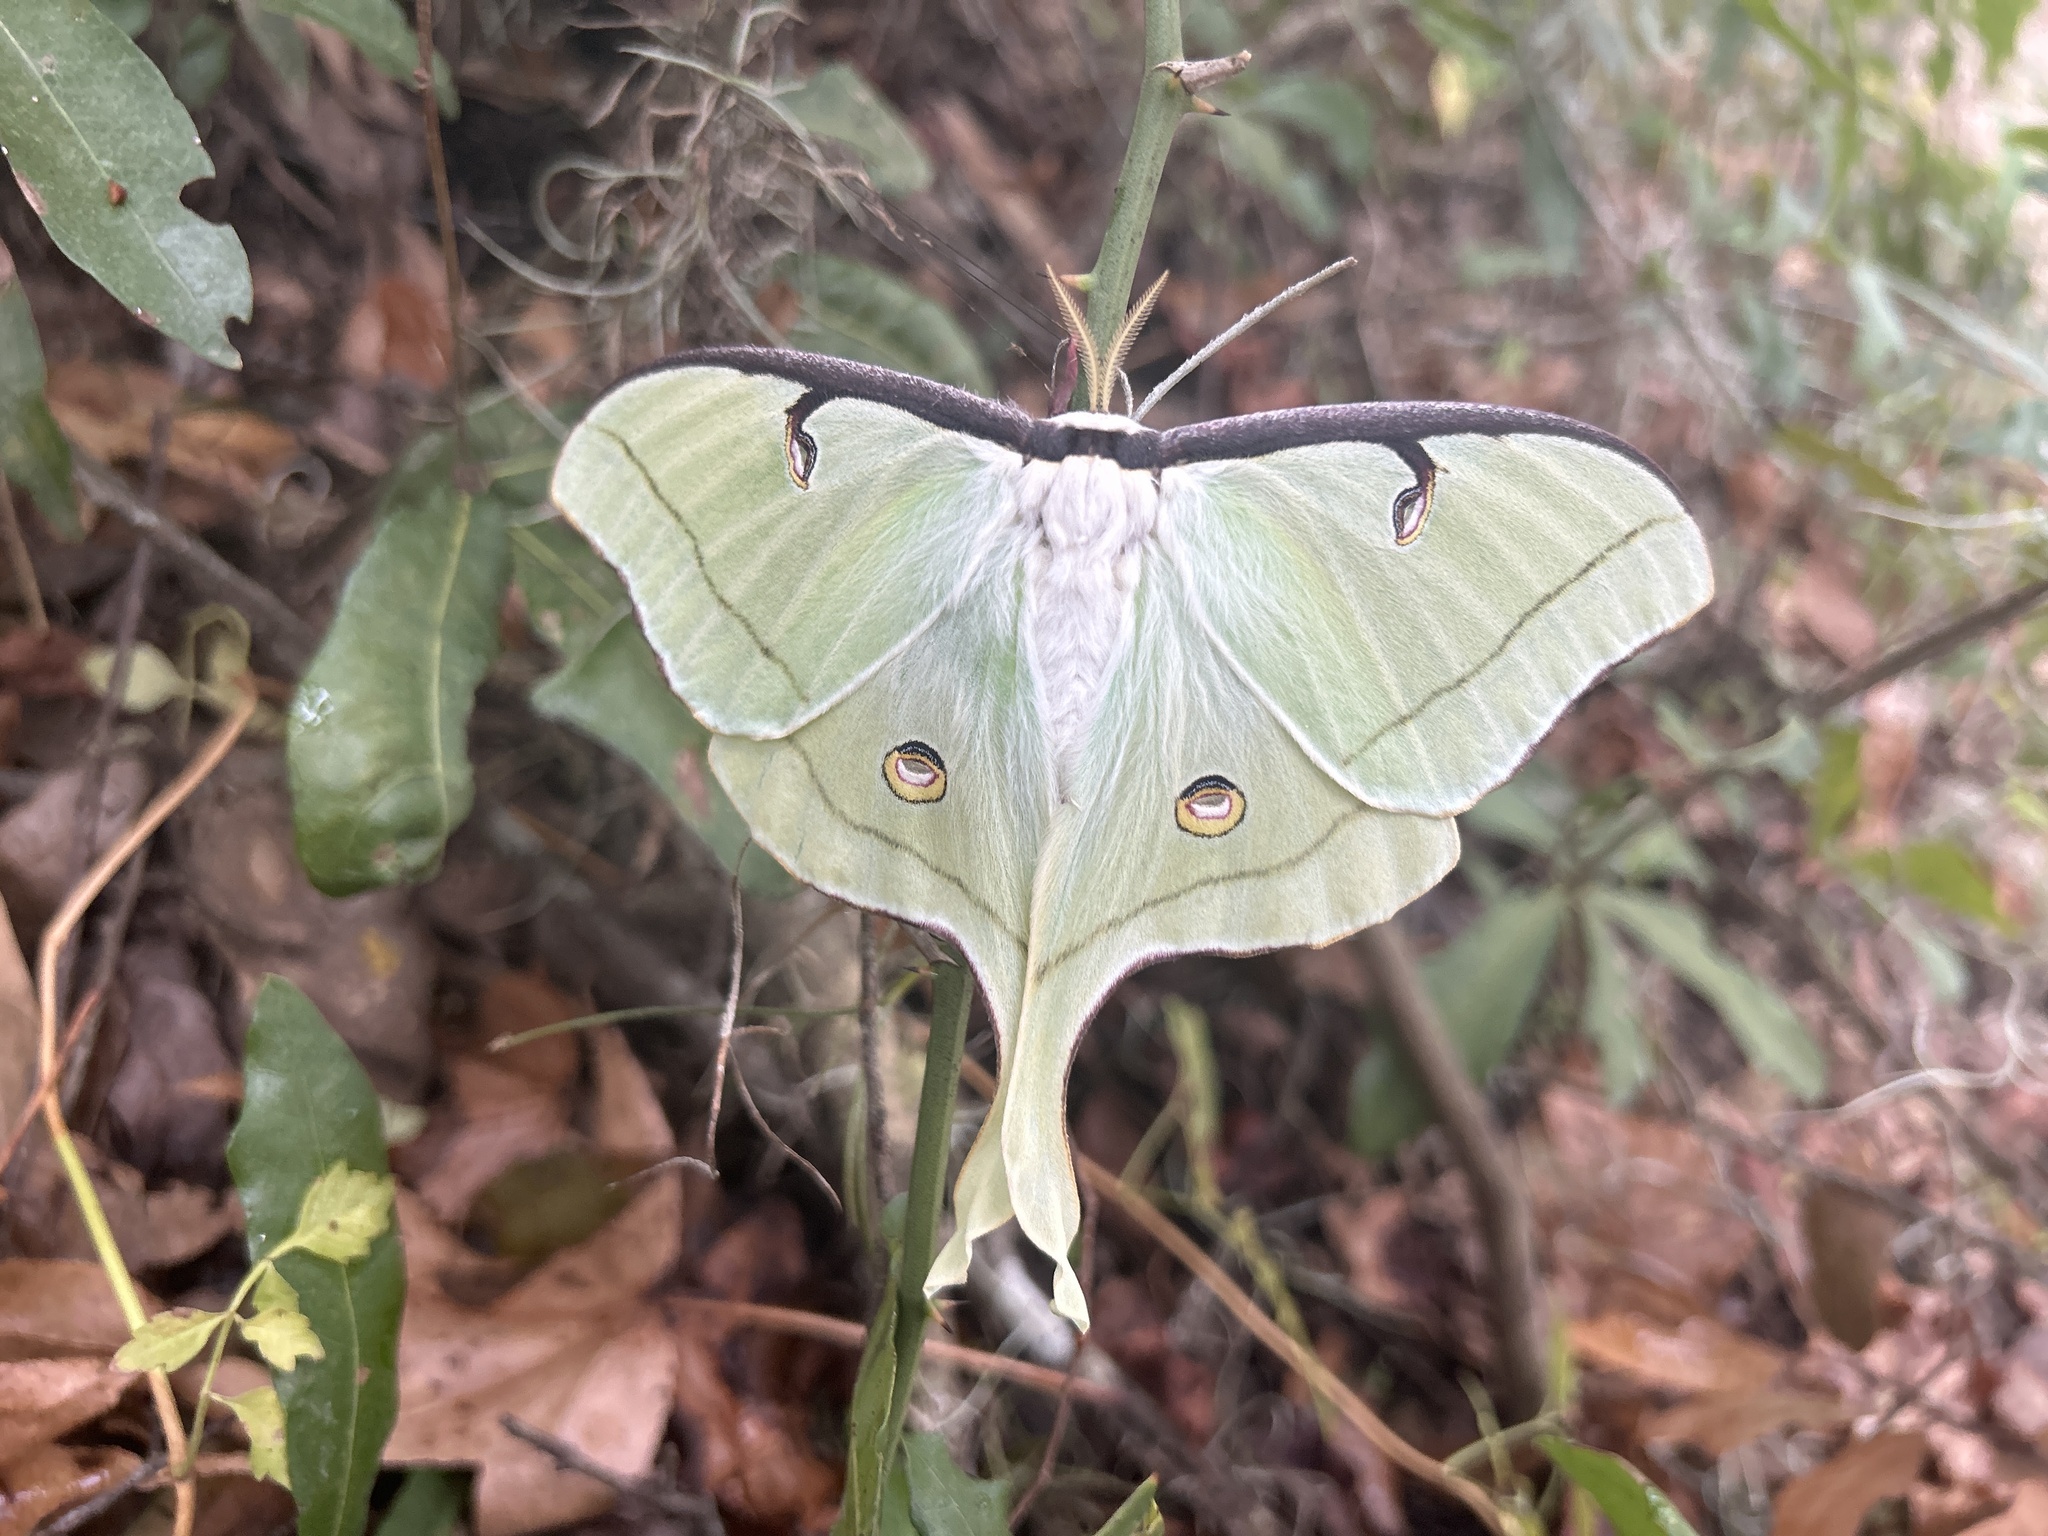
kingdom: Animalia
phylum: Arthropoda
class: Insecta
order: Lepidoptera
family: Saturniidae
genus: Actias
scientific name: Actias luna
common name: Luna moth
